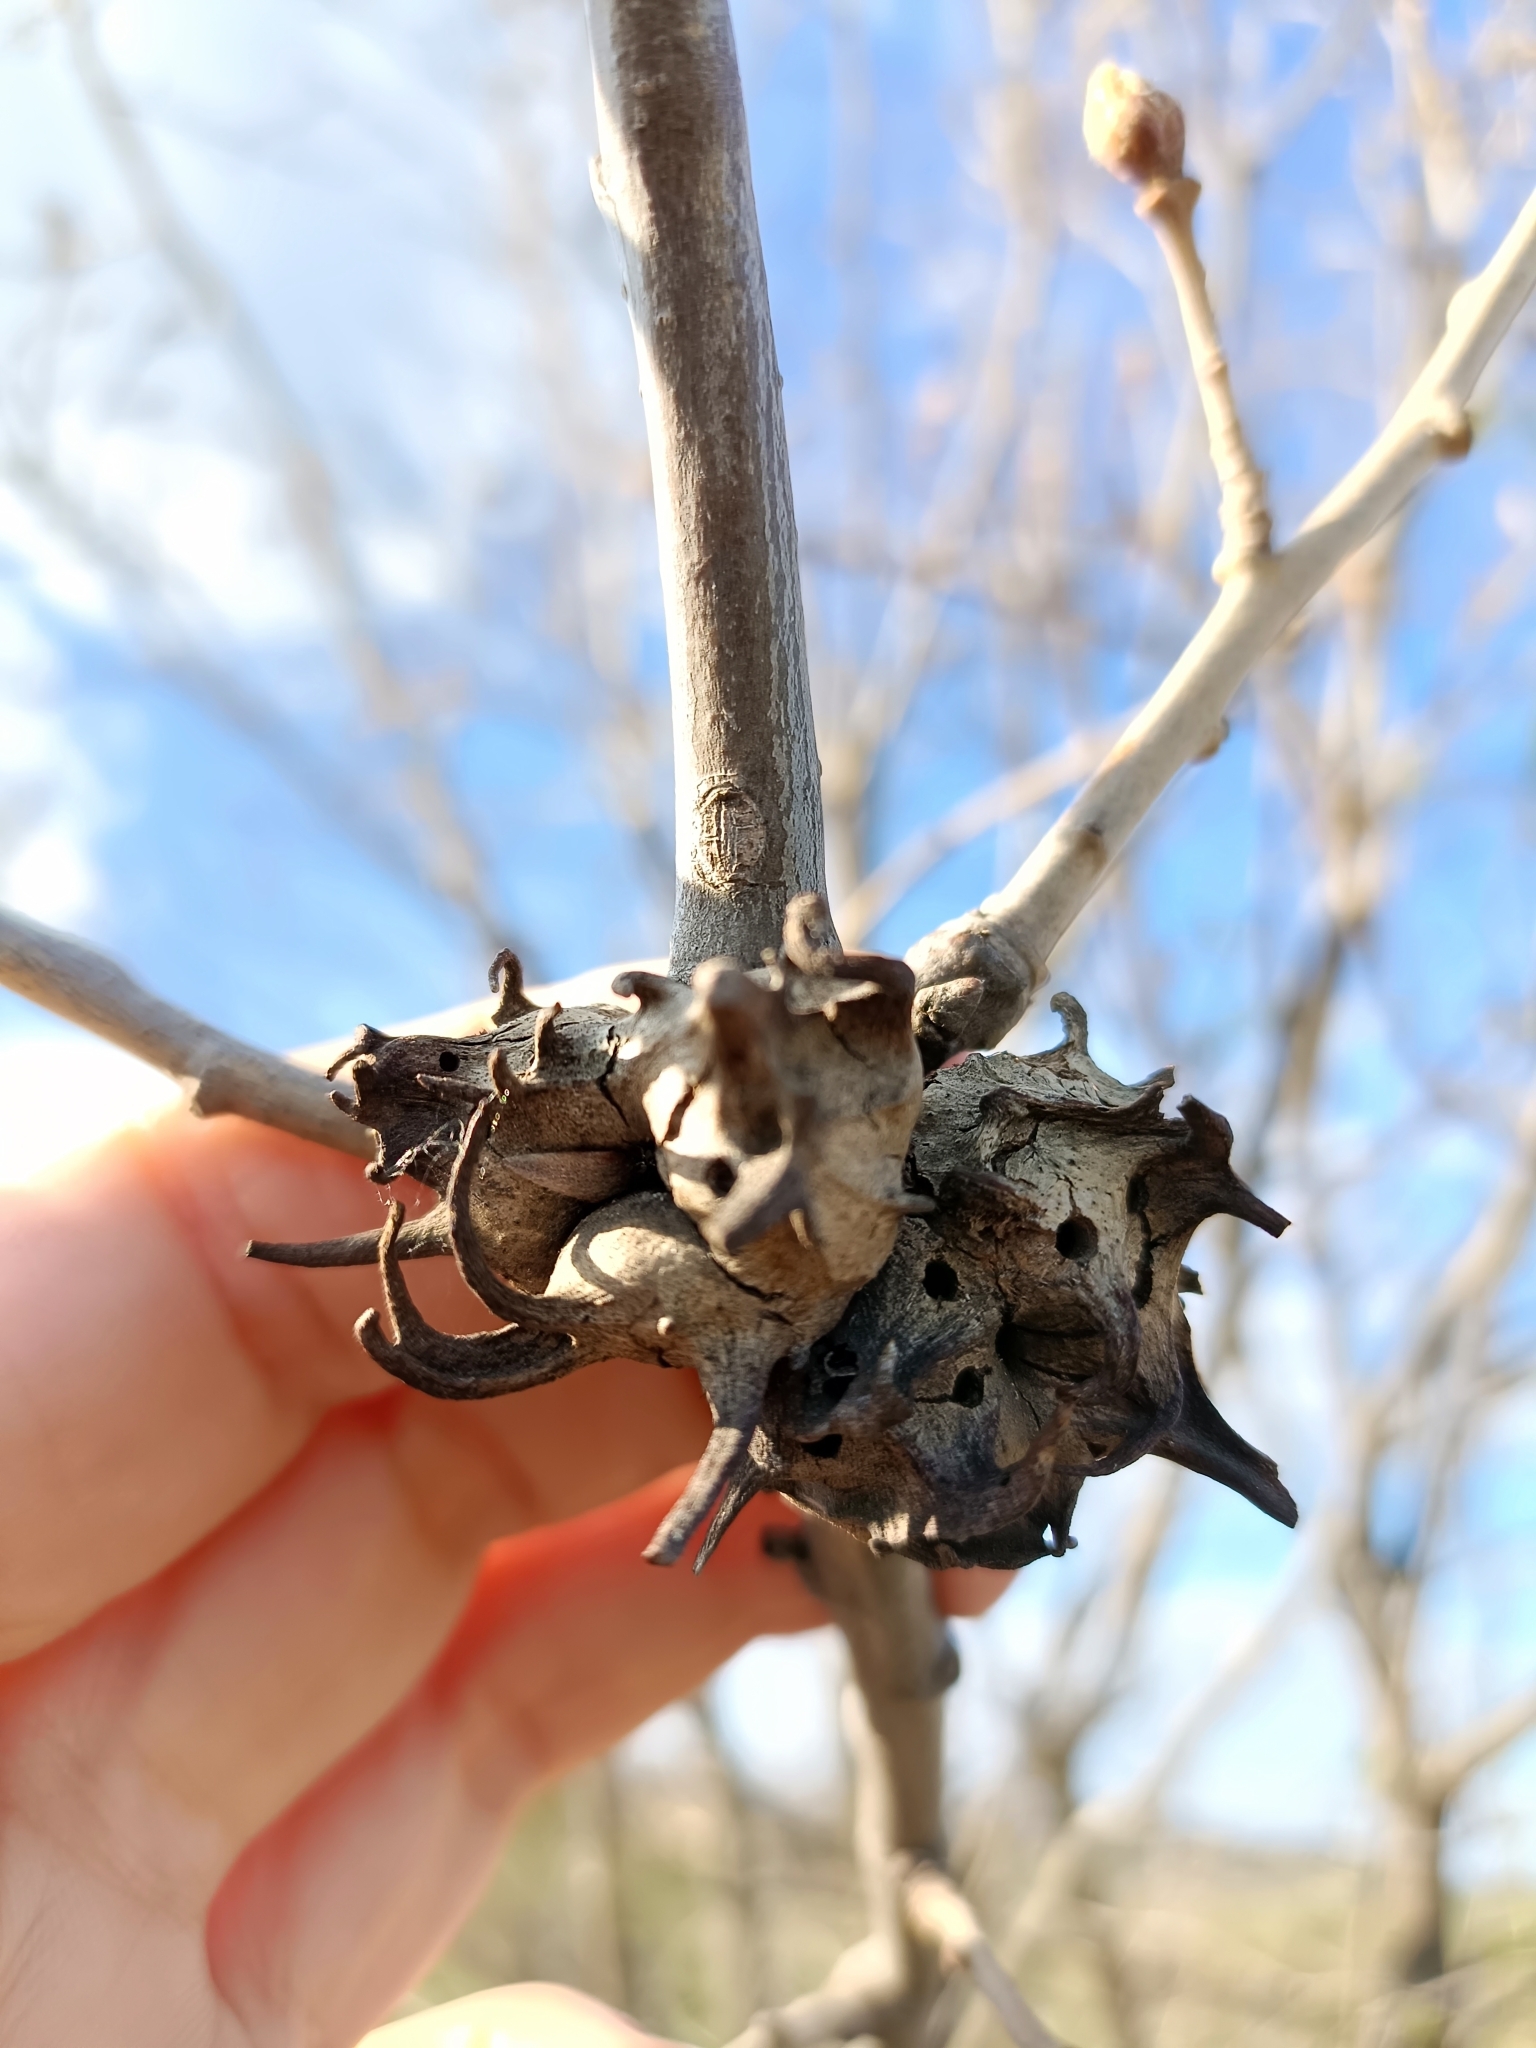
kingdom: Animalia
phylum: Arthropoda
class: Insecta
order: Hymenoptera
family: Cynipidae
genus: Andricus
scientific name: Andricus coriarius
